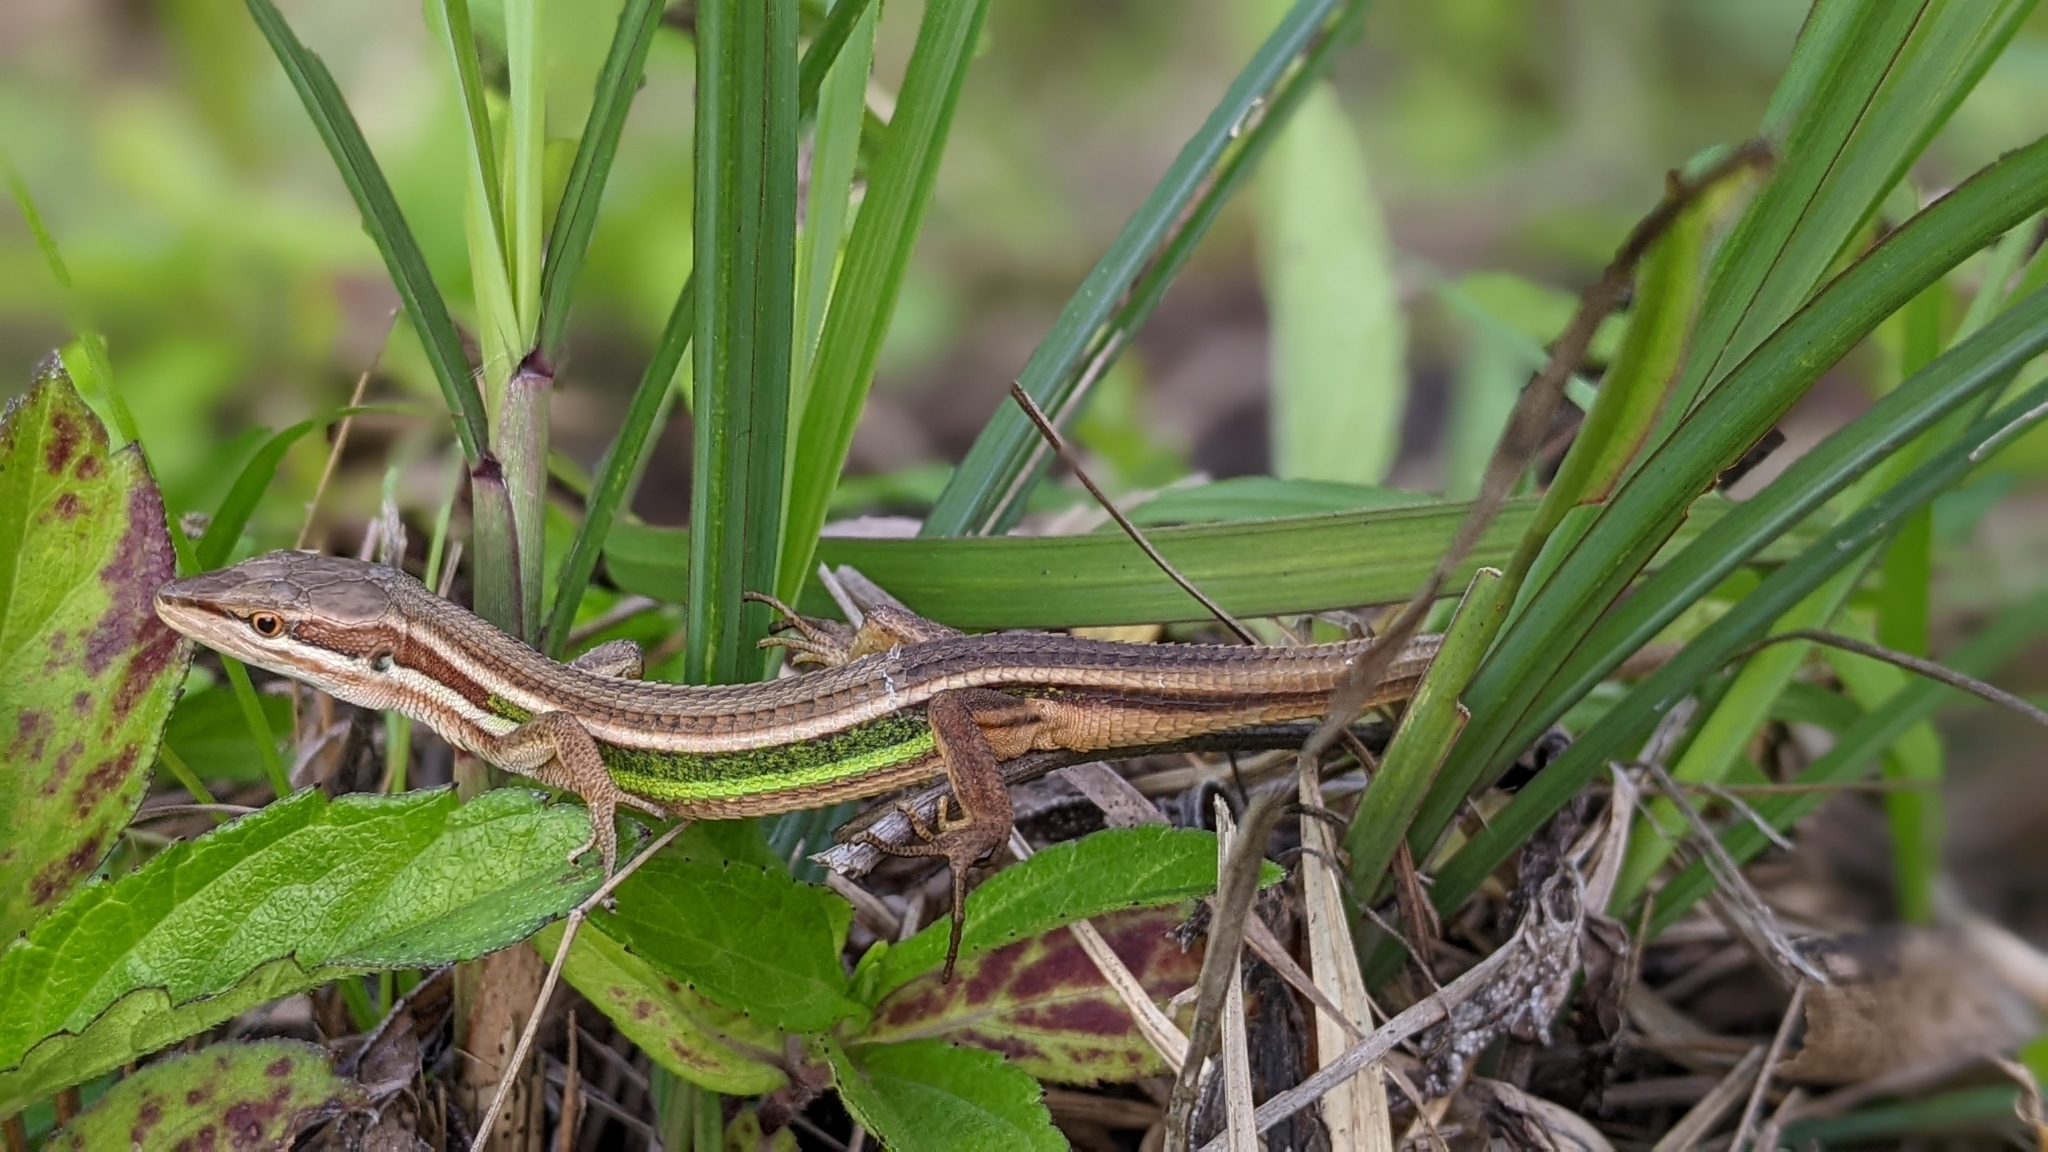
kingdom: Animalia
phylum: Chordata
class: Squamata
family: Lacertidae
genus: Takydromus
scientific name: Takydromus viridipunctatus
